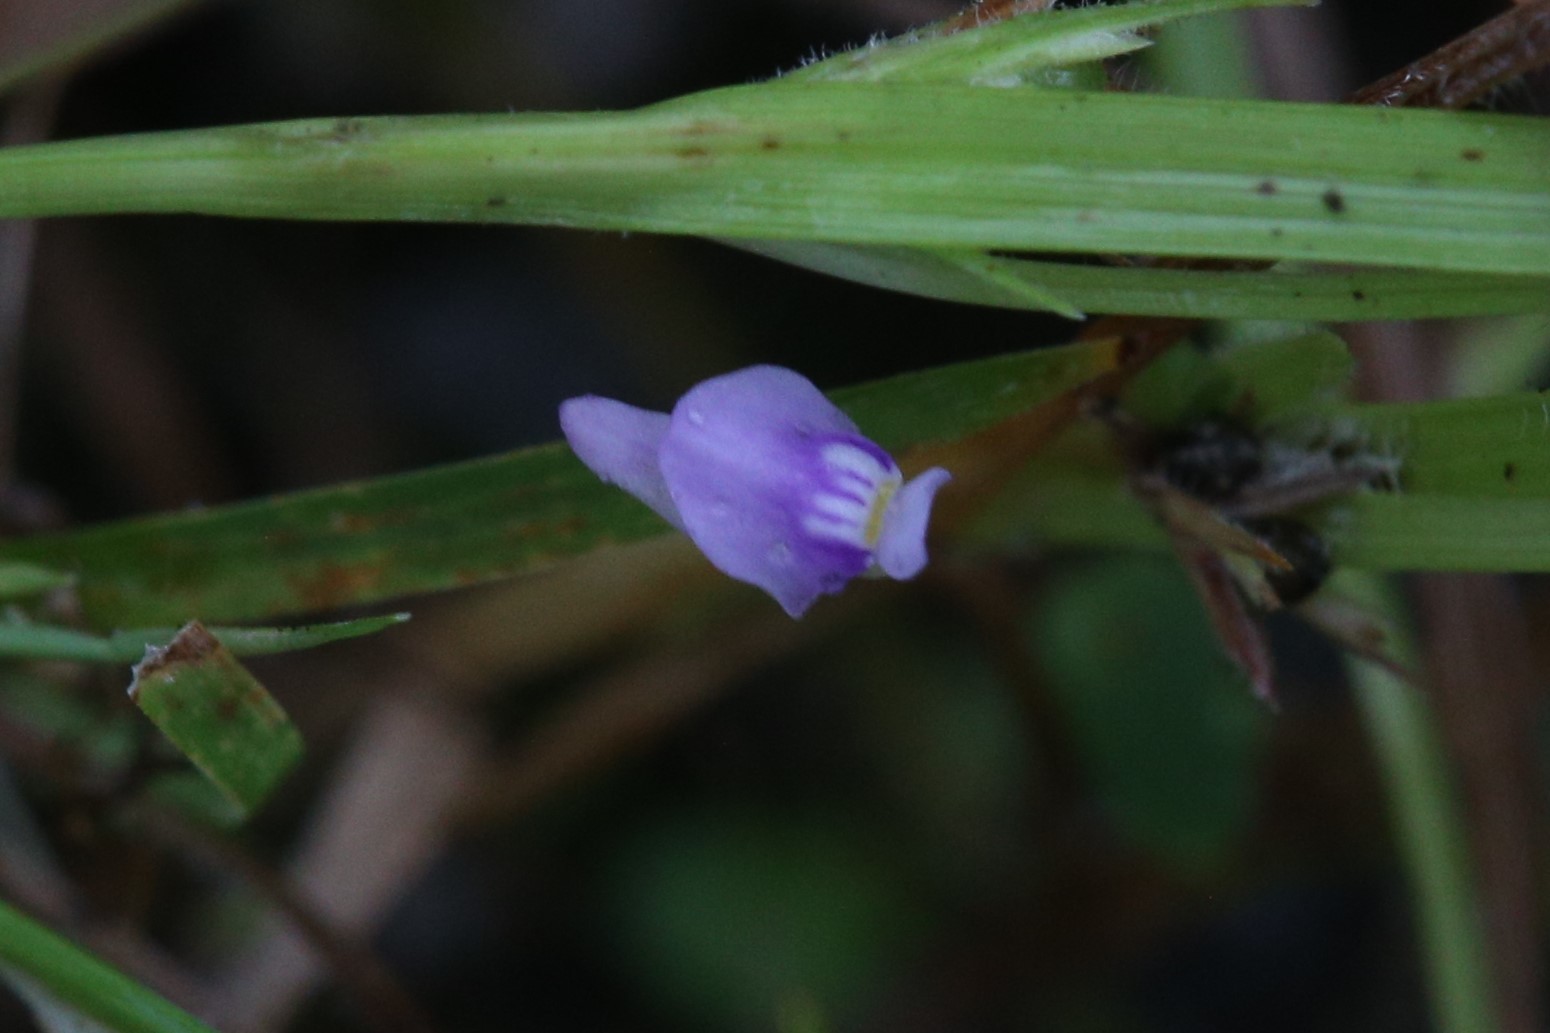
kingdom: Plantae
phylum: Tracheophyta
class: Magnoliopsida
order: Lamiales
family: Lentibulariaceae
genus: Utricularia
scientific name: Utricularia caerulea
